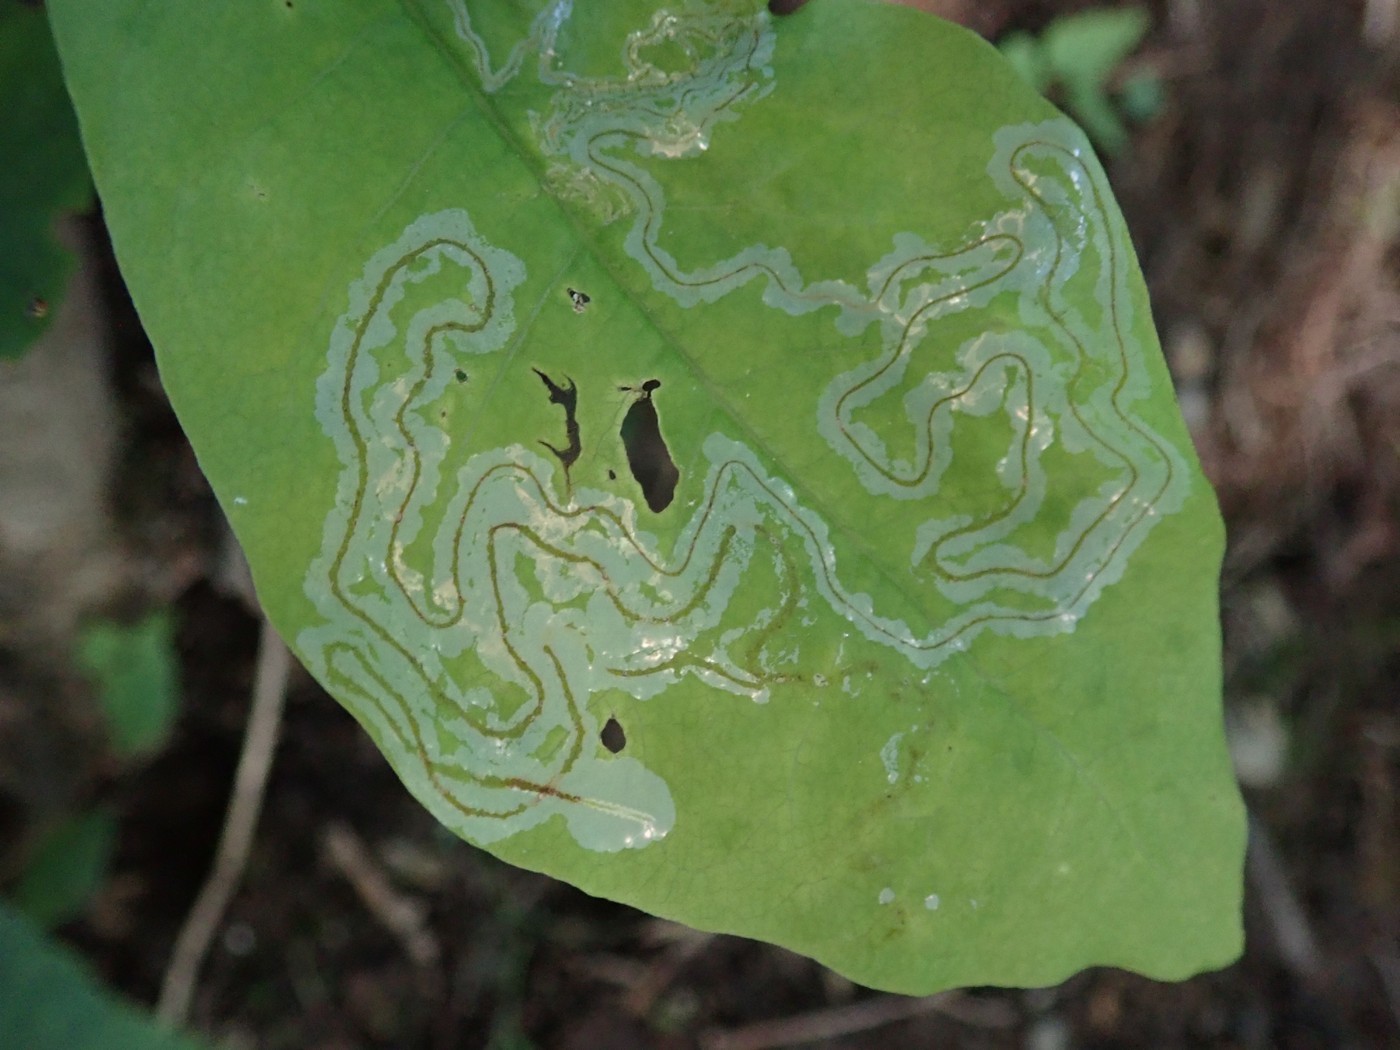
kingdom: Animalia
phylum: Arthropoda
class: Insecta
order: Lepidoptera
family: Gracillariidae
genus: Phyllocnistis
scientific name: Phyllocnistis liriodendronella
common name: Tulip tree leaf miner
